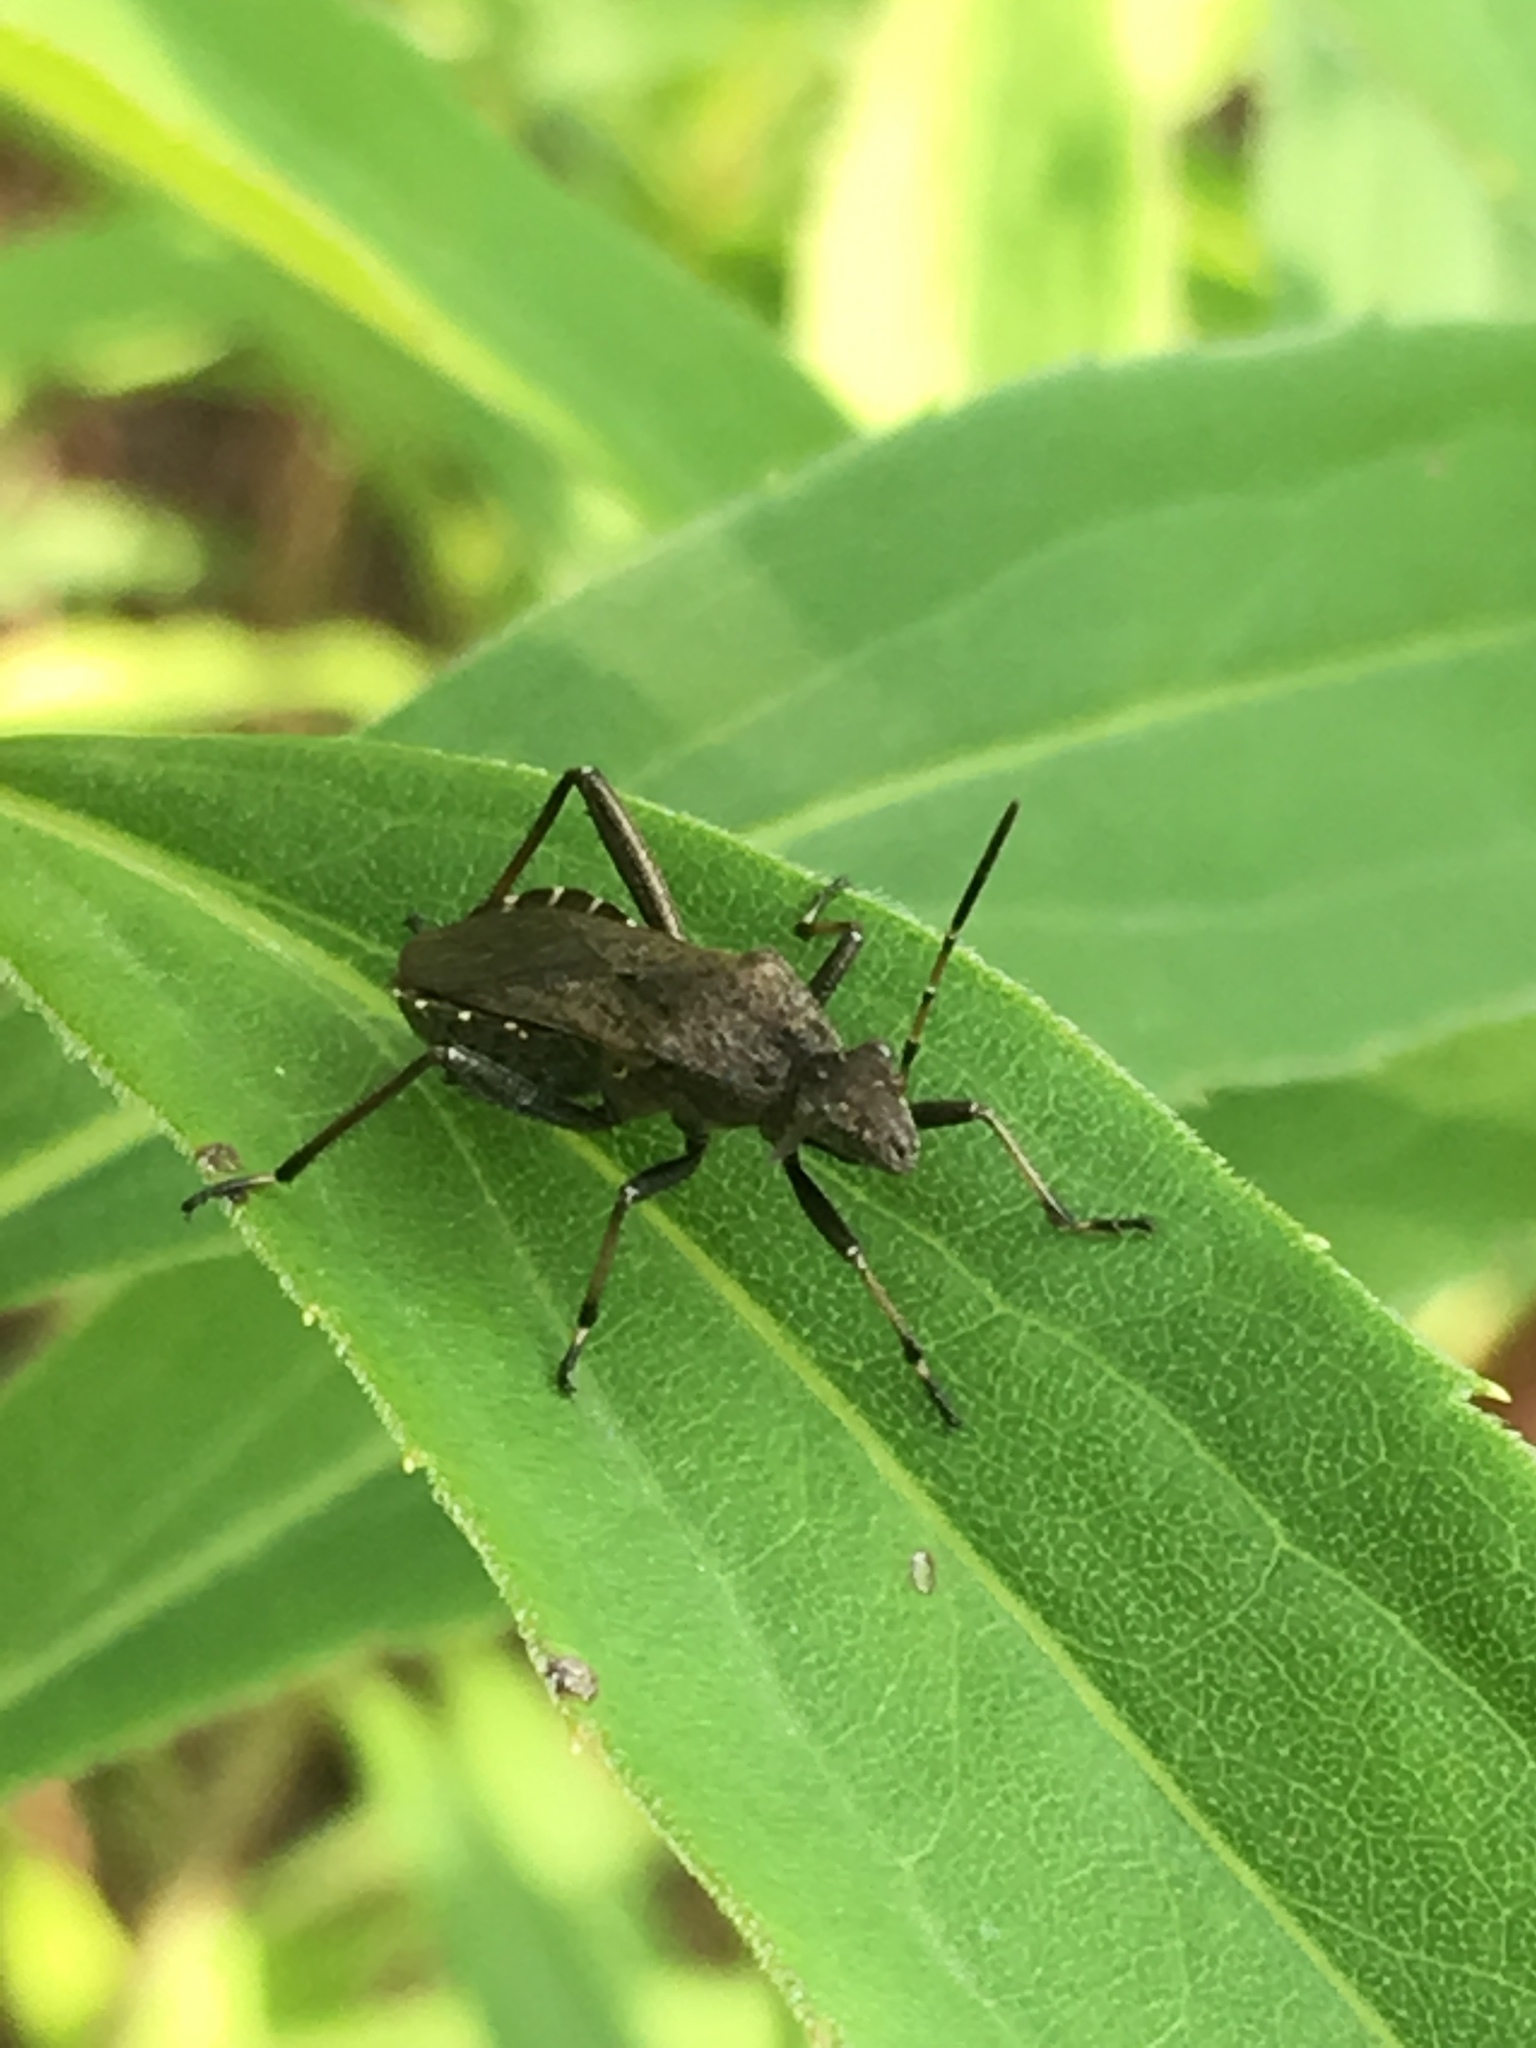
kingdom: Animalia
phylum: Arthropoda
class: Insecta
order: Hemiptera
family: Alydidae
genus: Alydus
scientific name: Alydus calcaratus
